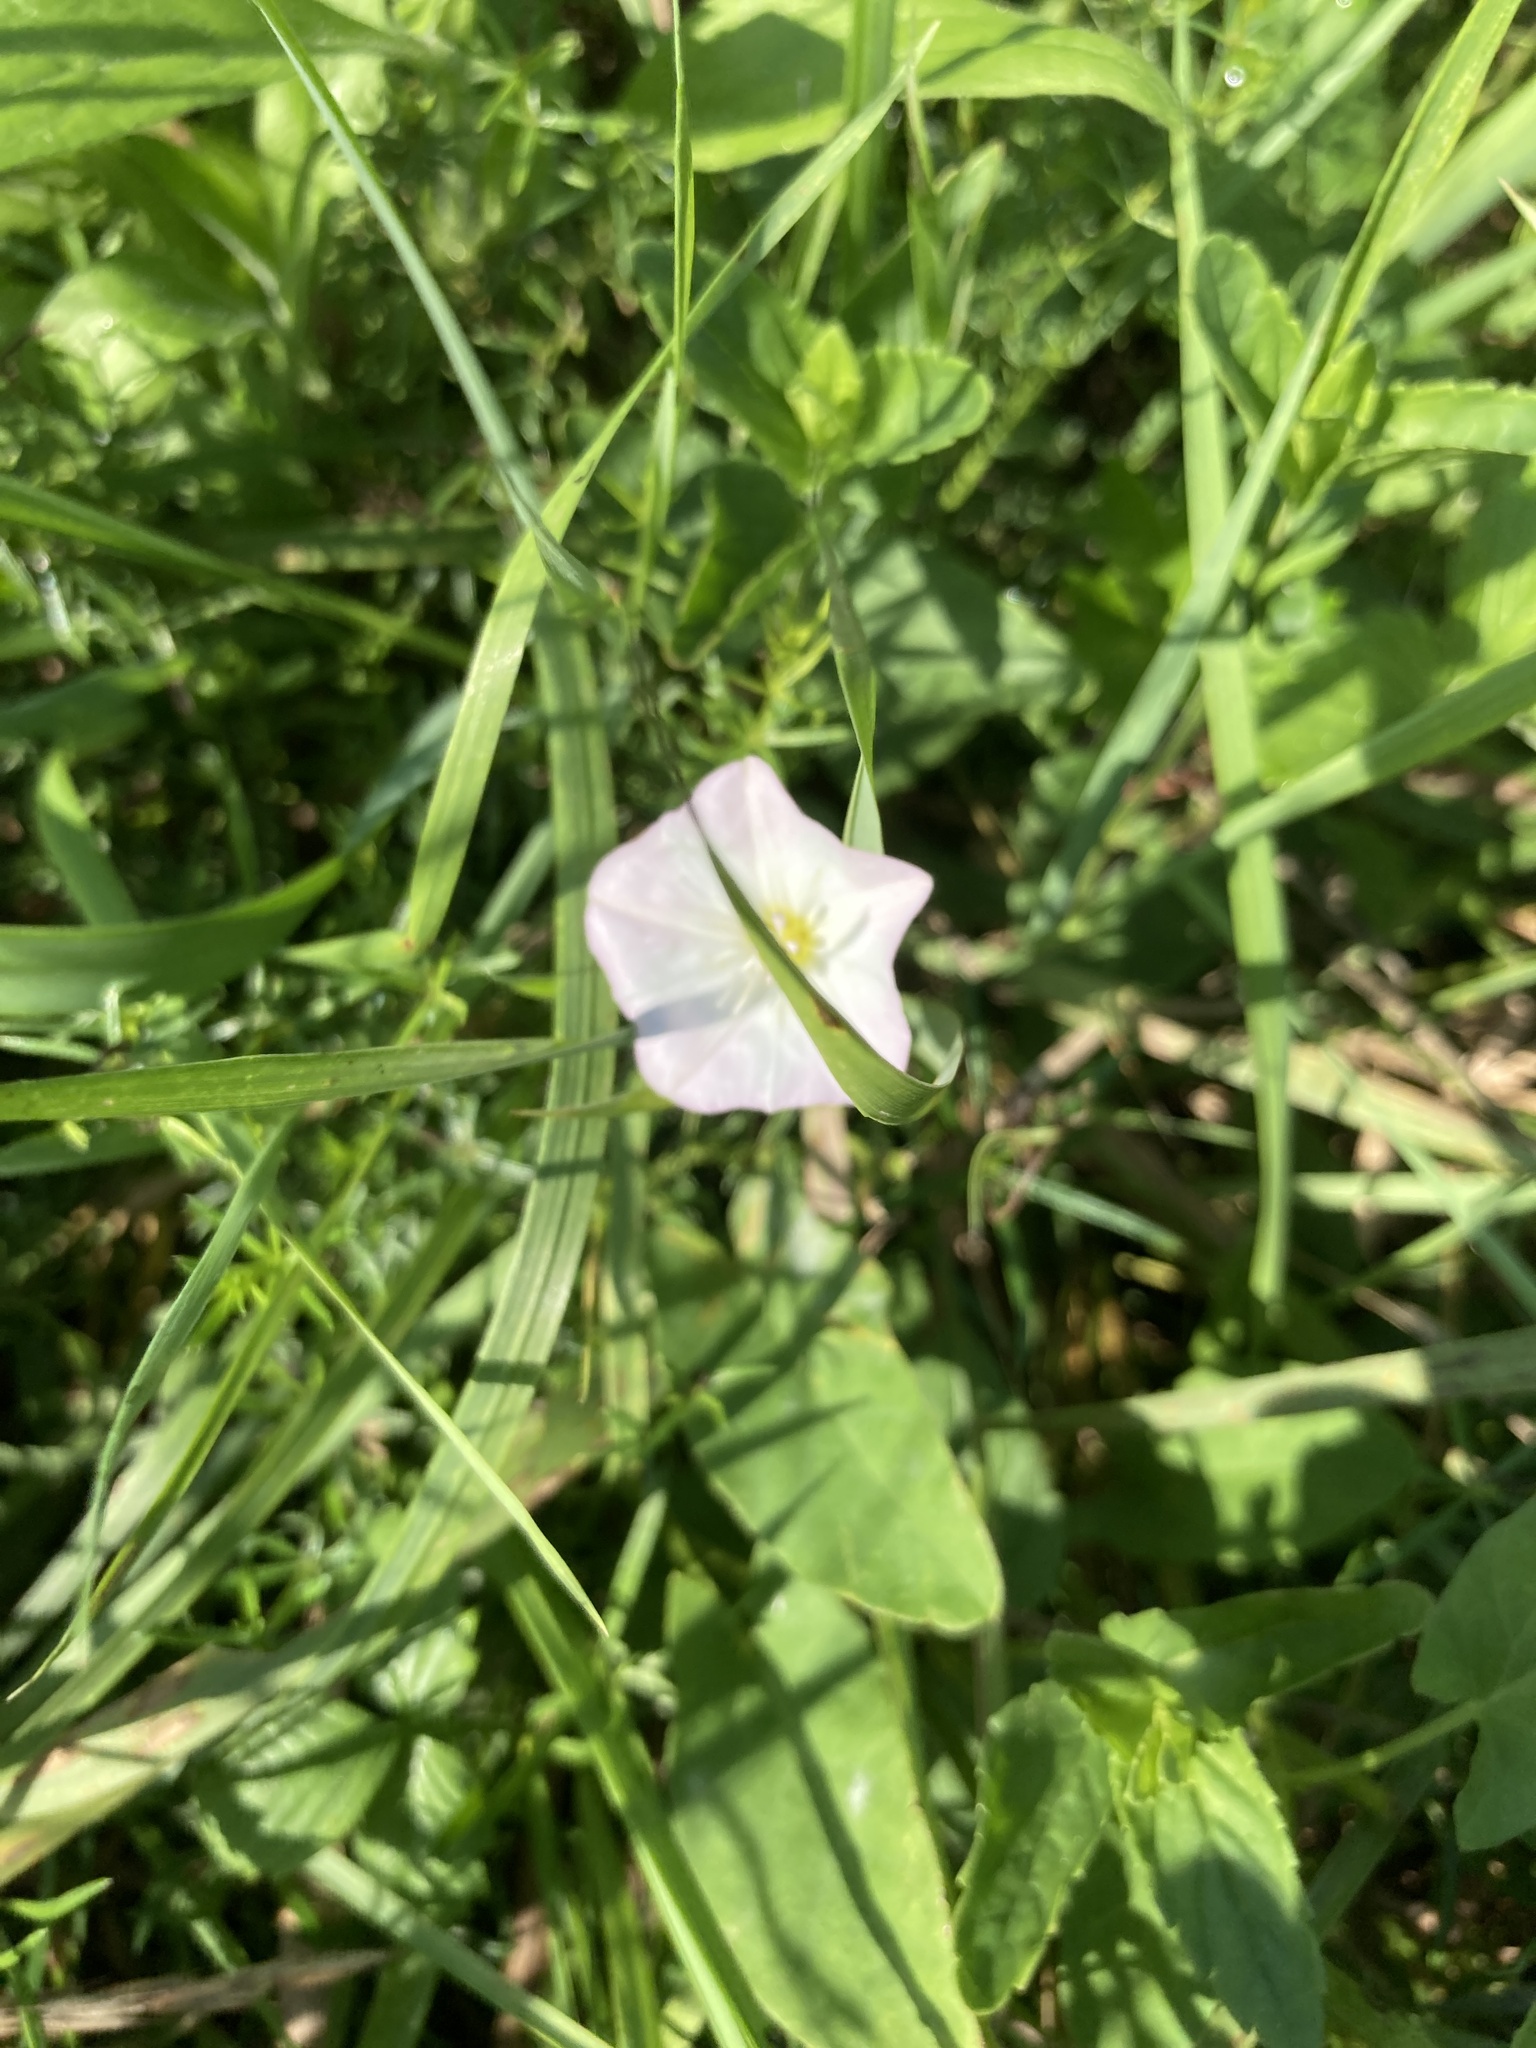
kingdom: Plantae
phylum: Tracheophyta
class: Magnoliopsida
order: Solanales
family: Convolvulaceae
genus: Convolvulus
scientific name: Convolvulus arvensis
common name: Field bindweed
